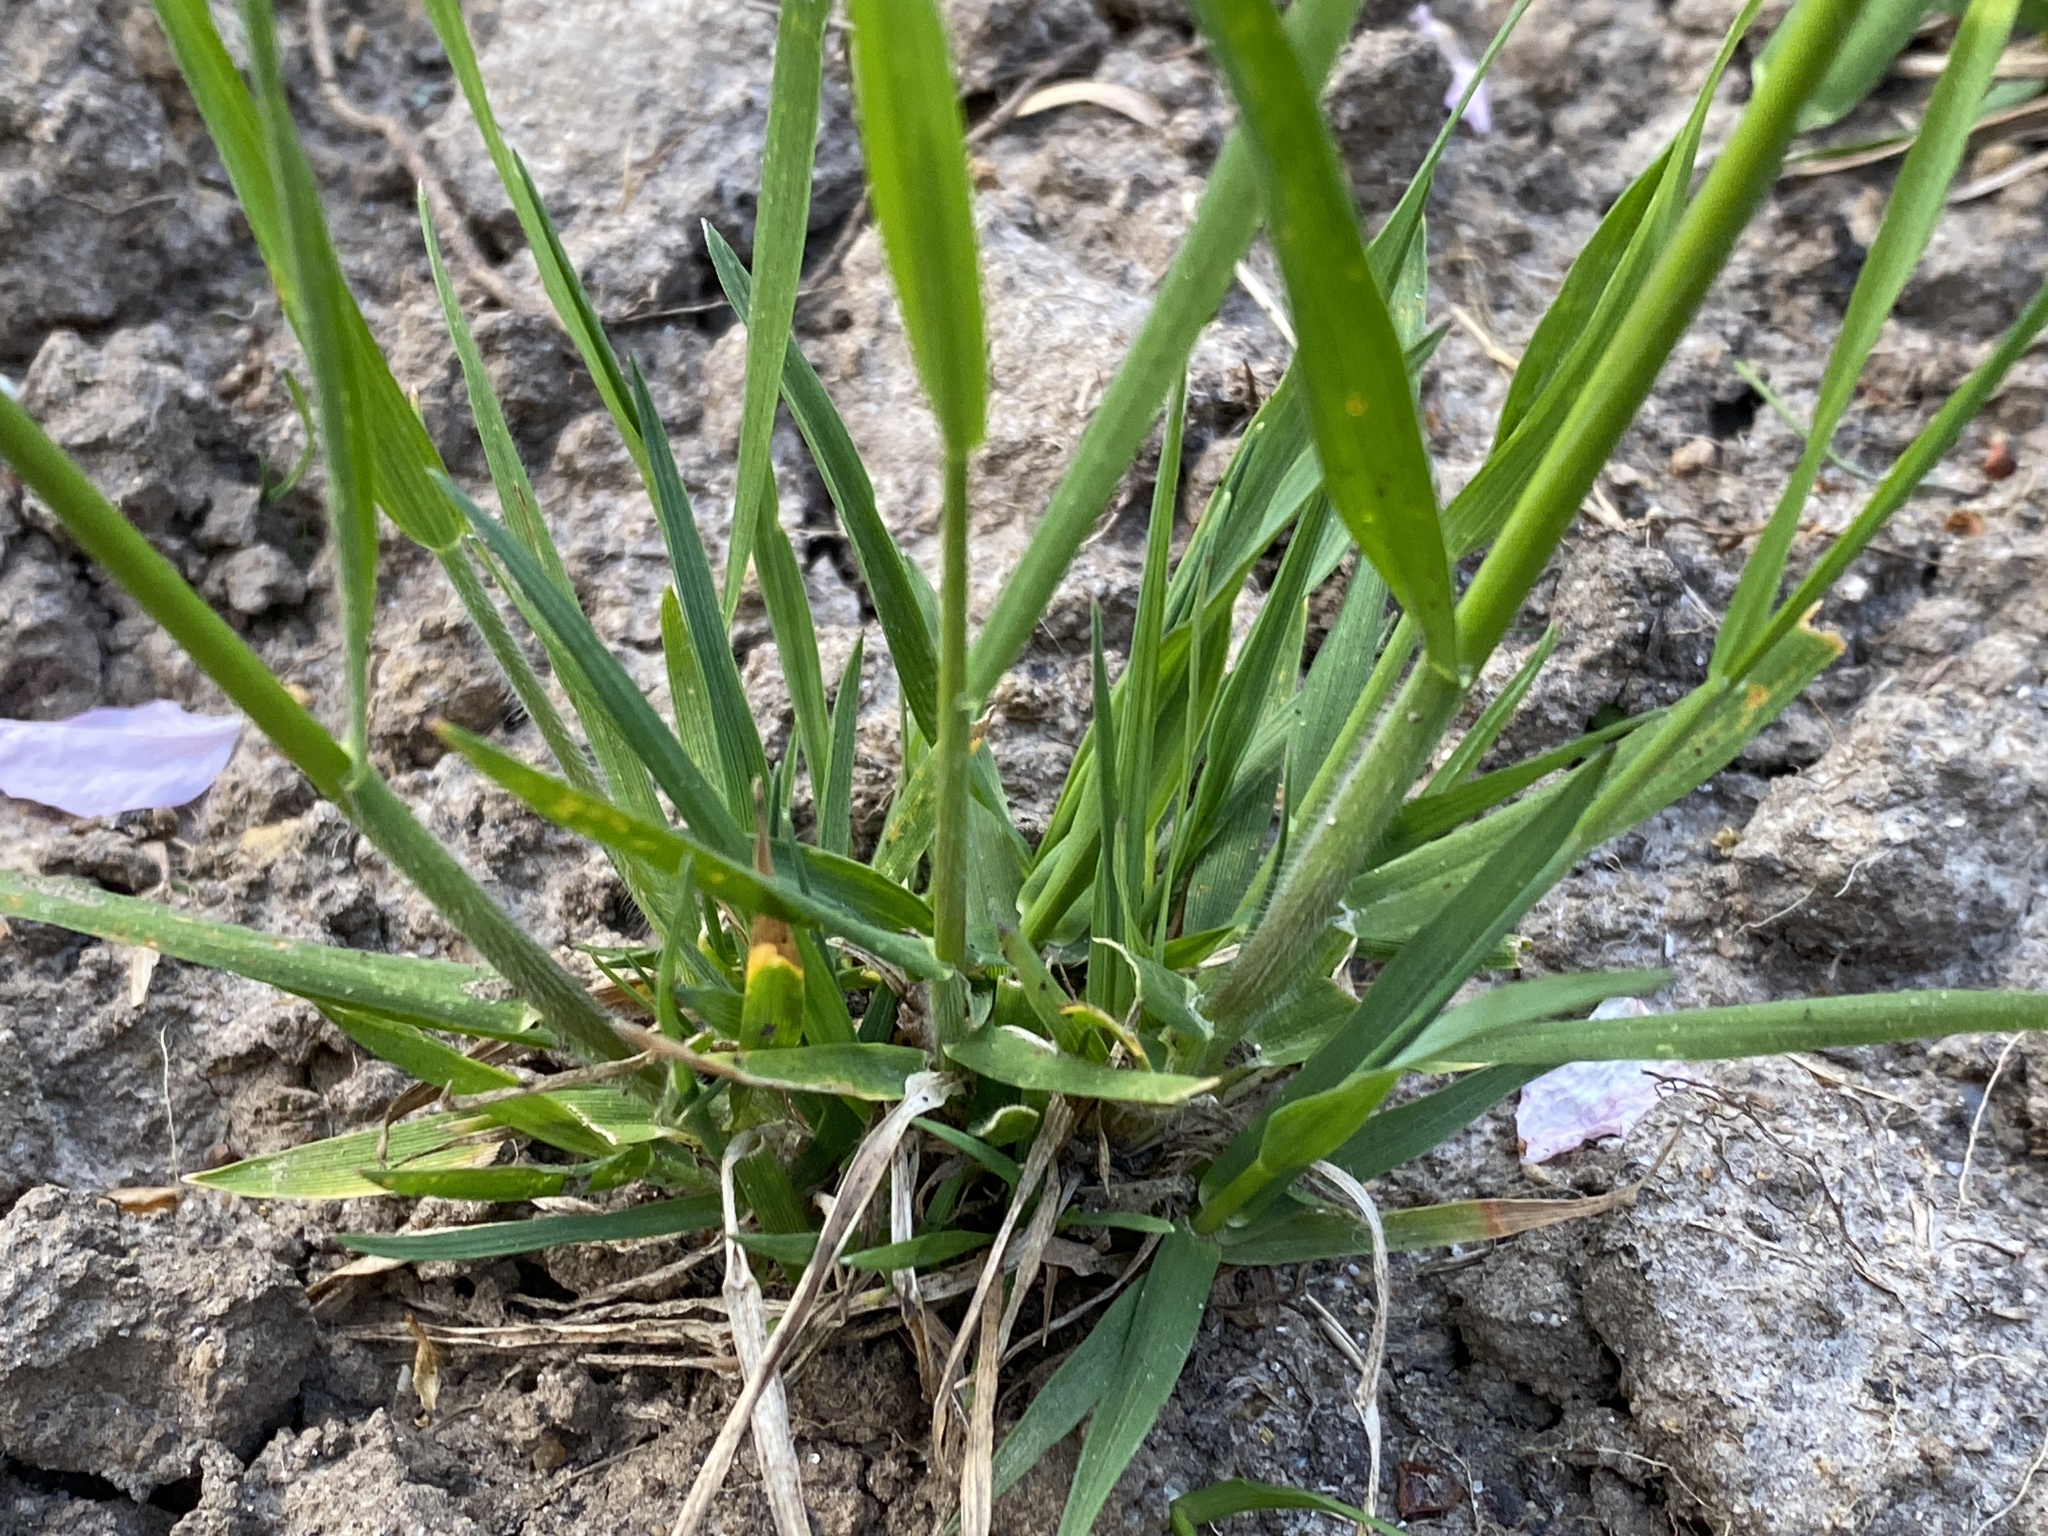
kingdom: Plantae
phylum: Tracheophyta
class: Liliopsida
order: Poales
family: Poaceae
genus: Anthoxanthum
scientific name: Anthoxanthum odoratum
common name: Sweet vernalgrass
